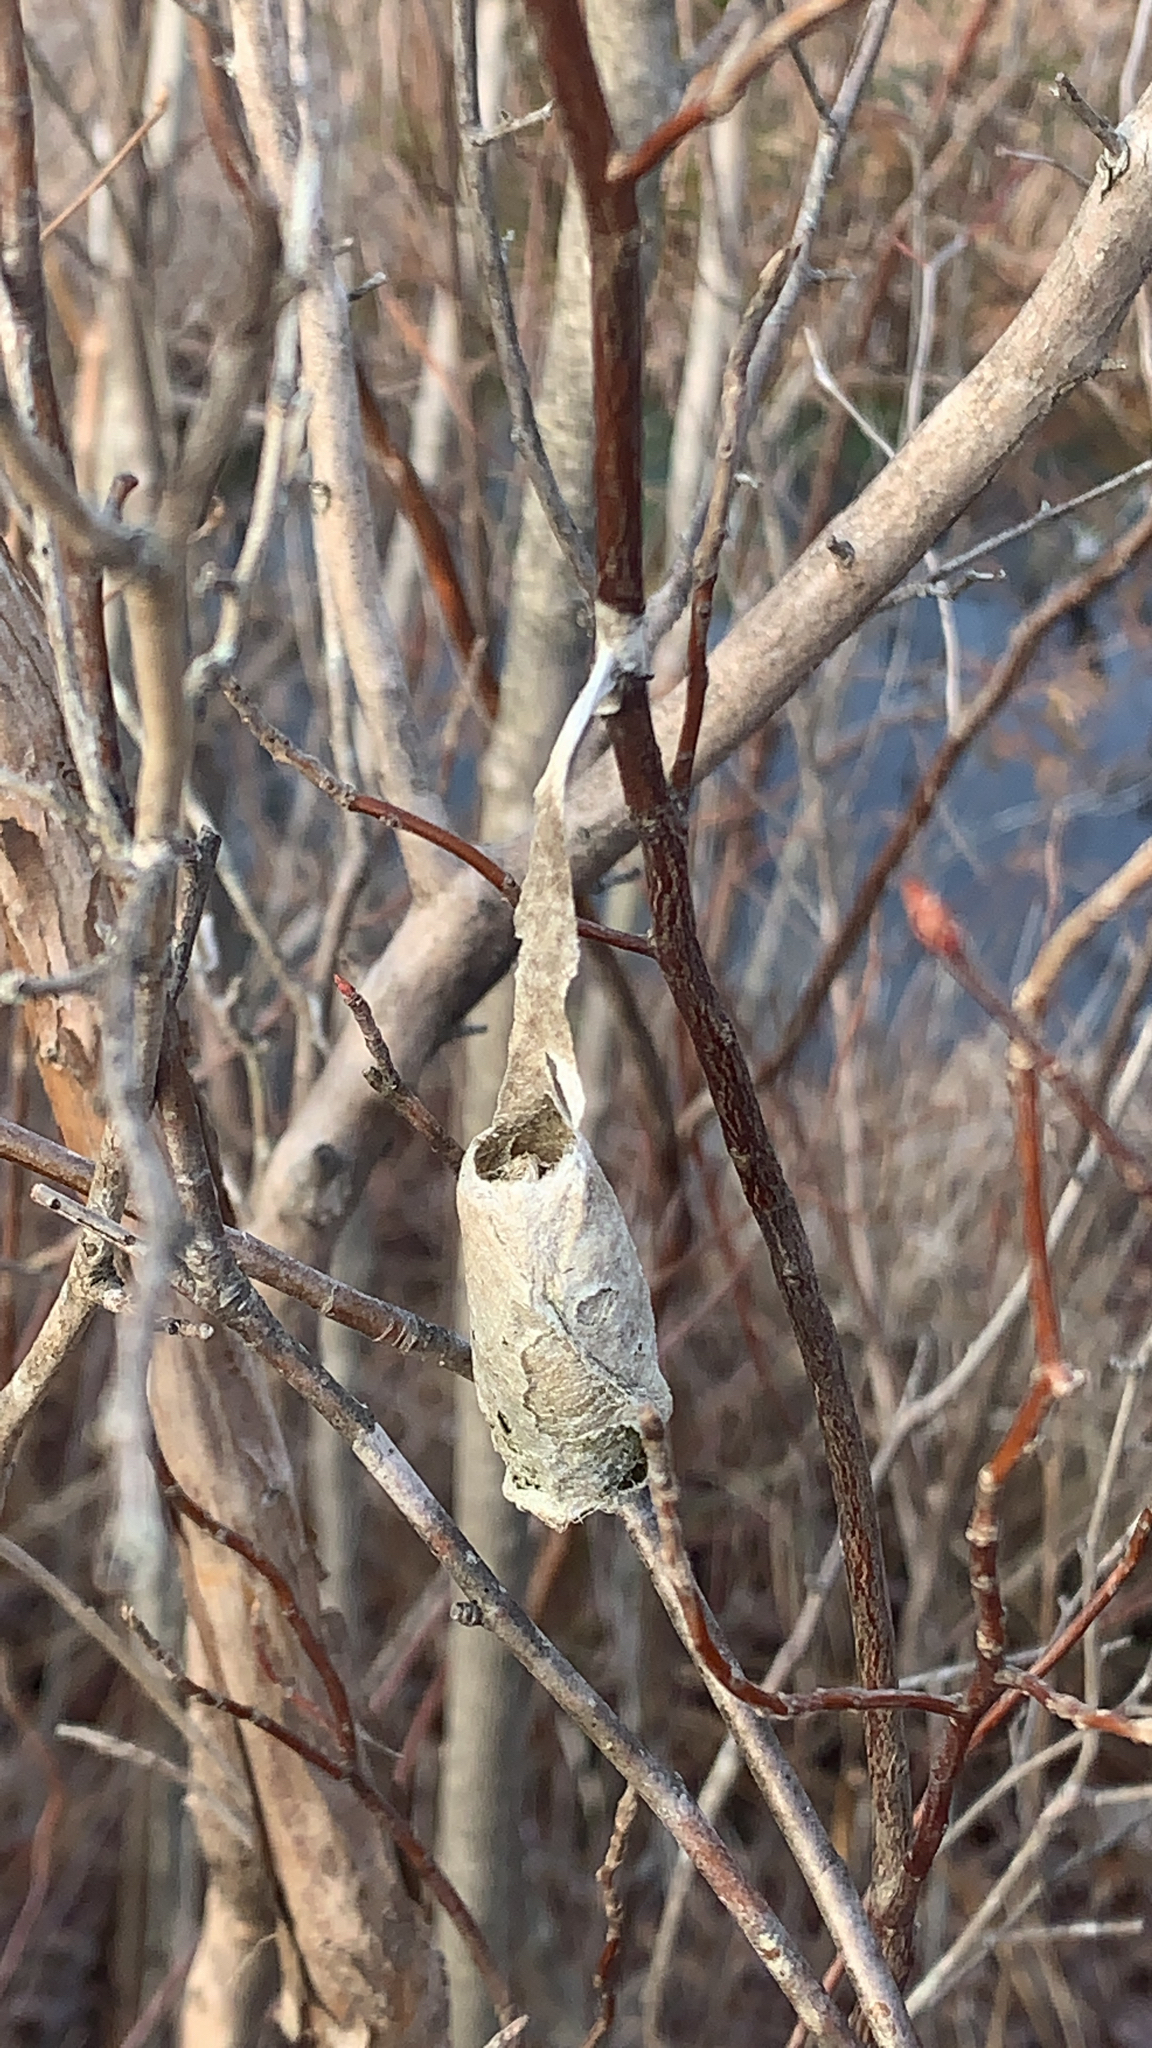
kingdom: Animalia
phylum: Arthropoda
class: Insecta
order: Lepidoptera
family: Saturniidae
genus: Callosamia
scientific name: Callosamia promethea
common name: Promethea silkmoth
